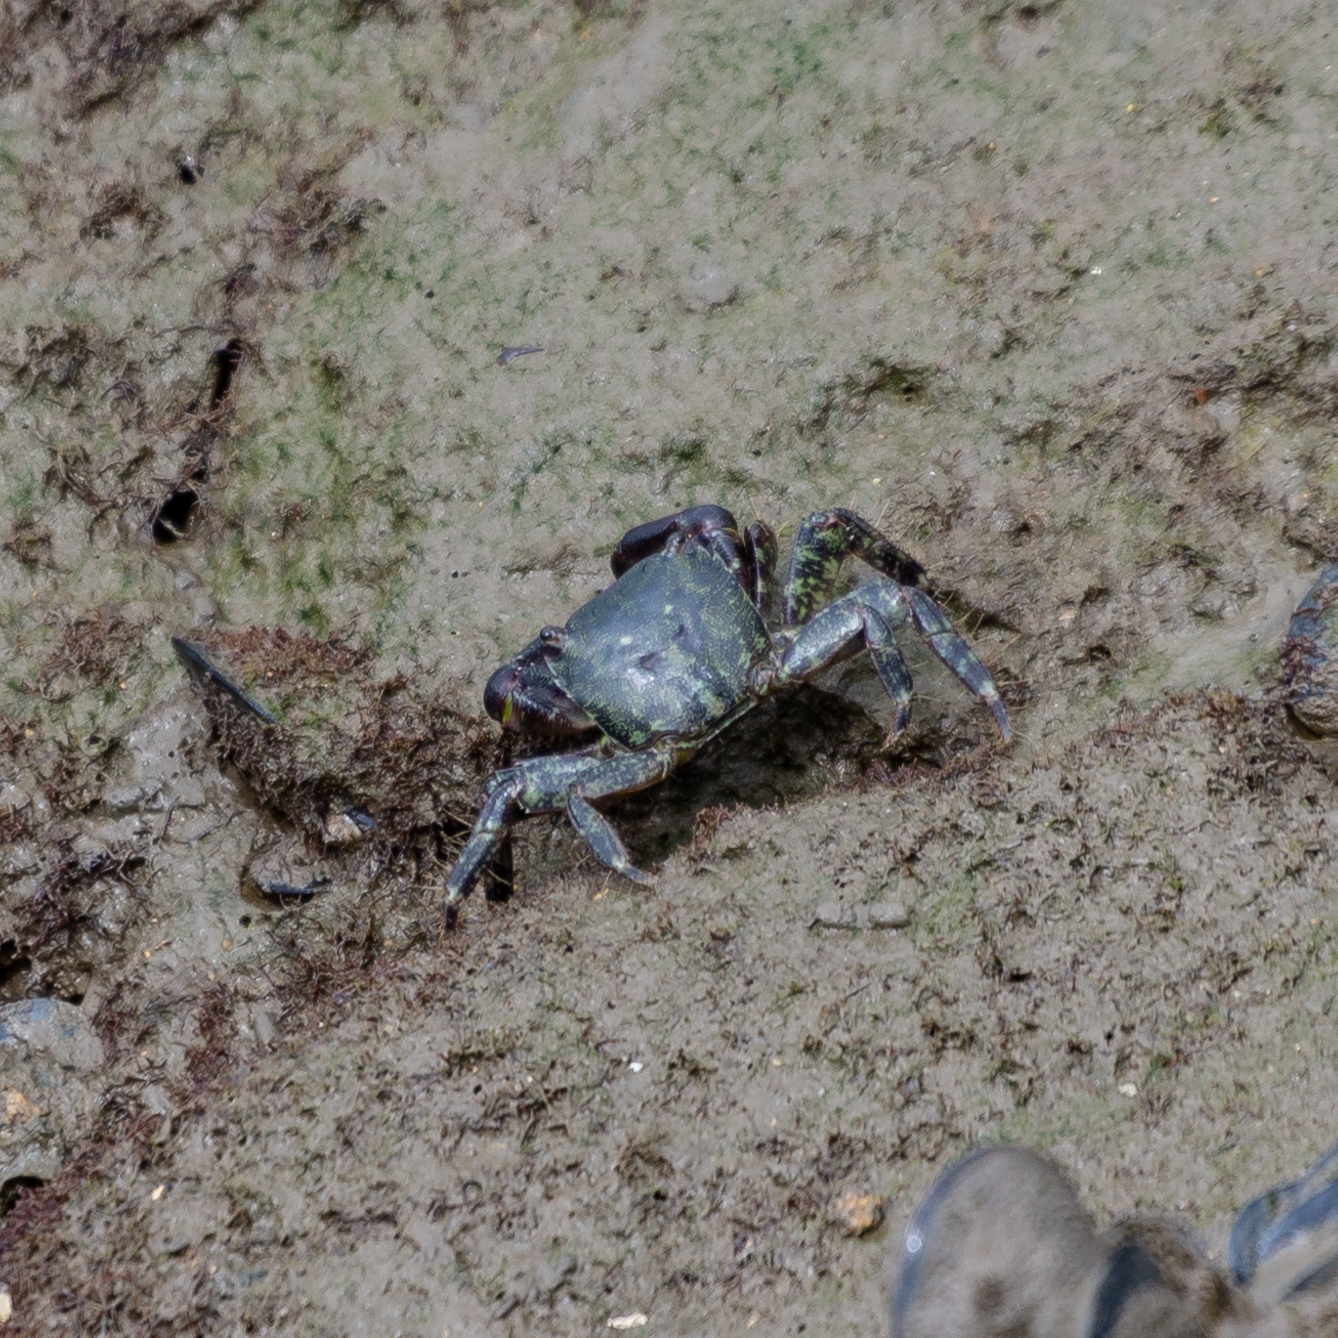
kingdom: Animalia
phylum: Arthropoda
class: Malacostraca
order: Decapoda
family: Grapsidae
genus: Pachygrapsus
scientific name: Pachygrapsus marmoratus
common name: Marbled rock crab
